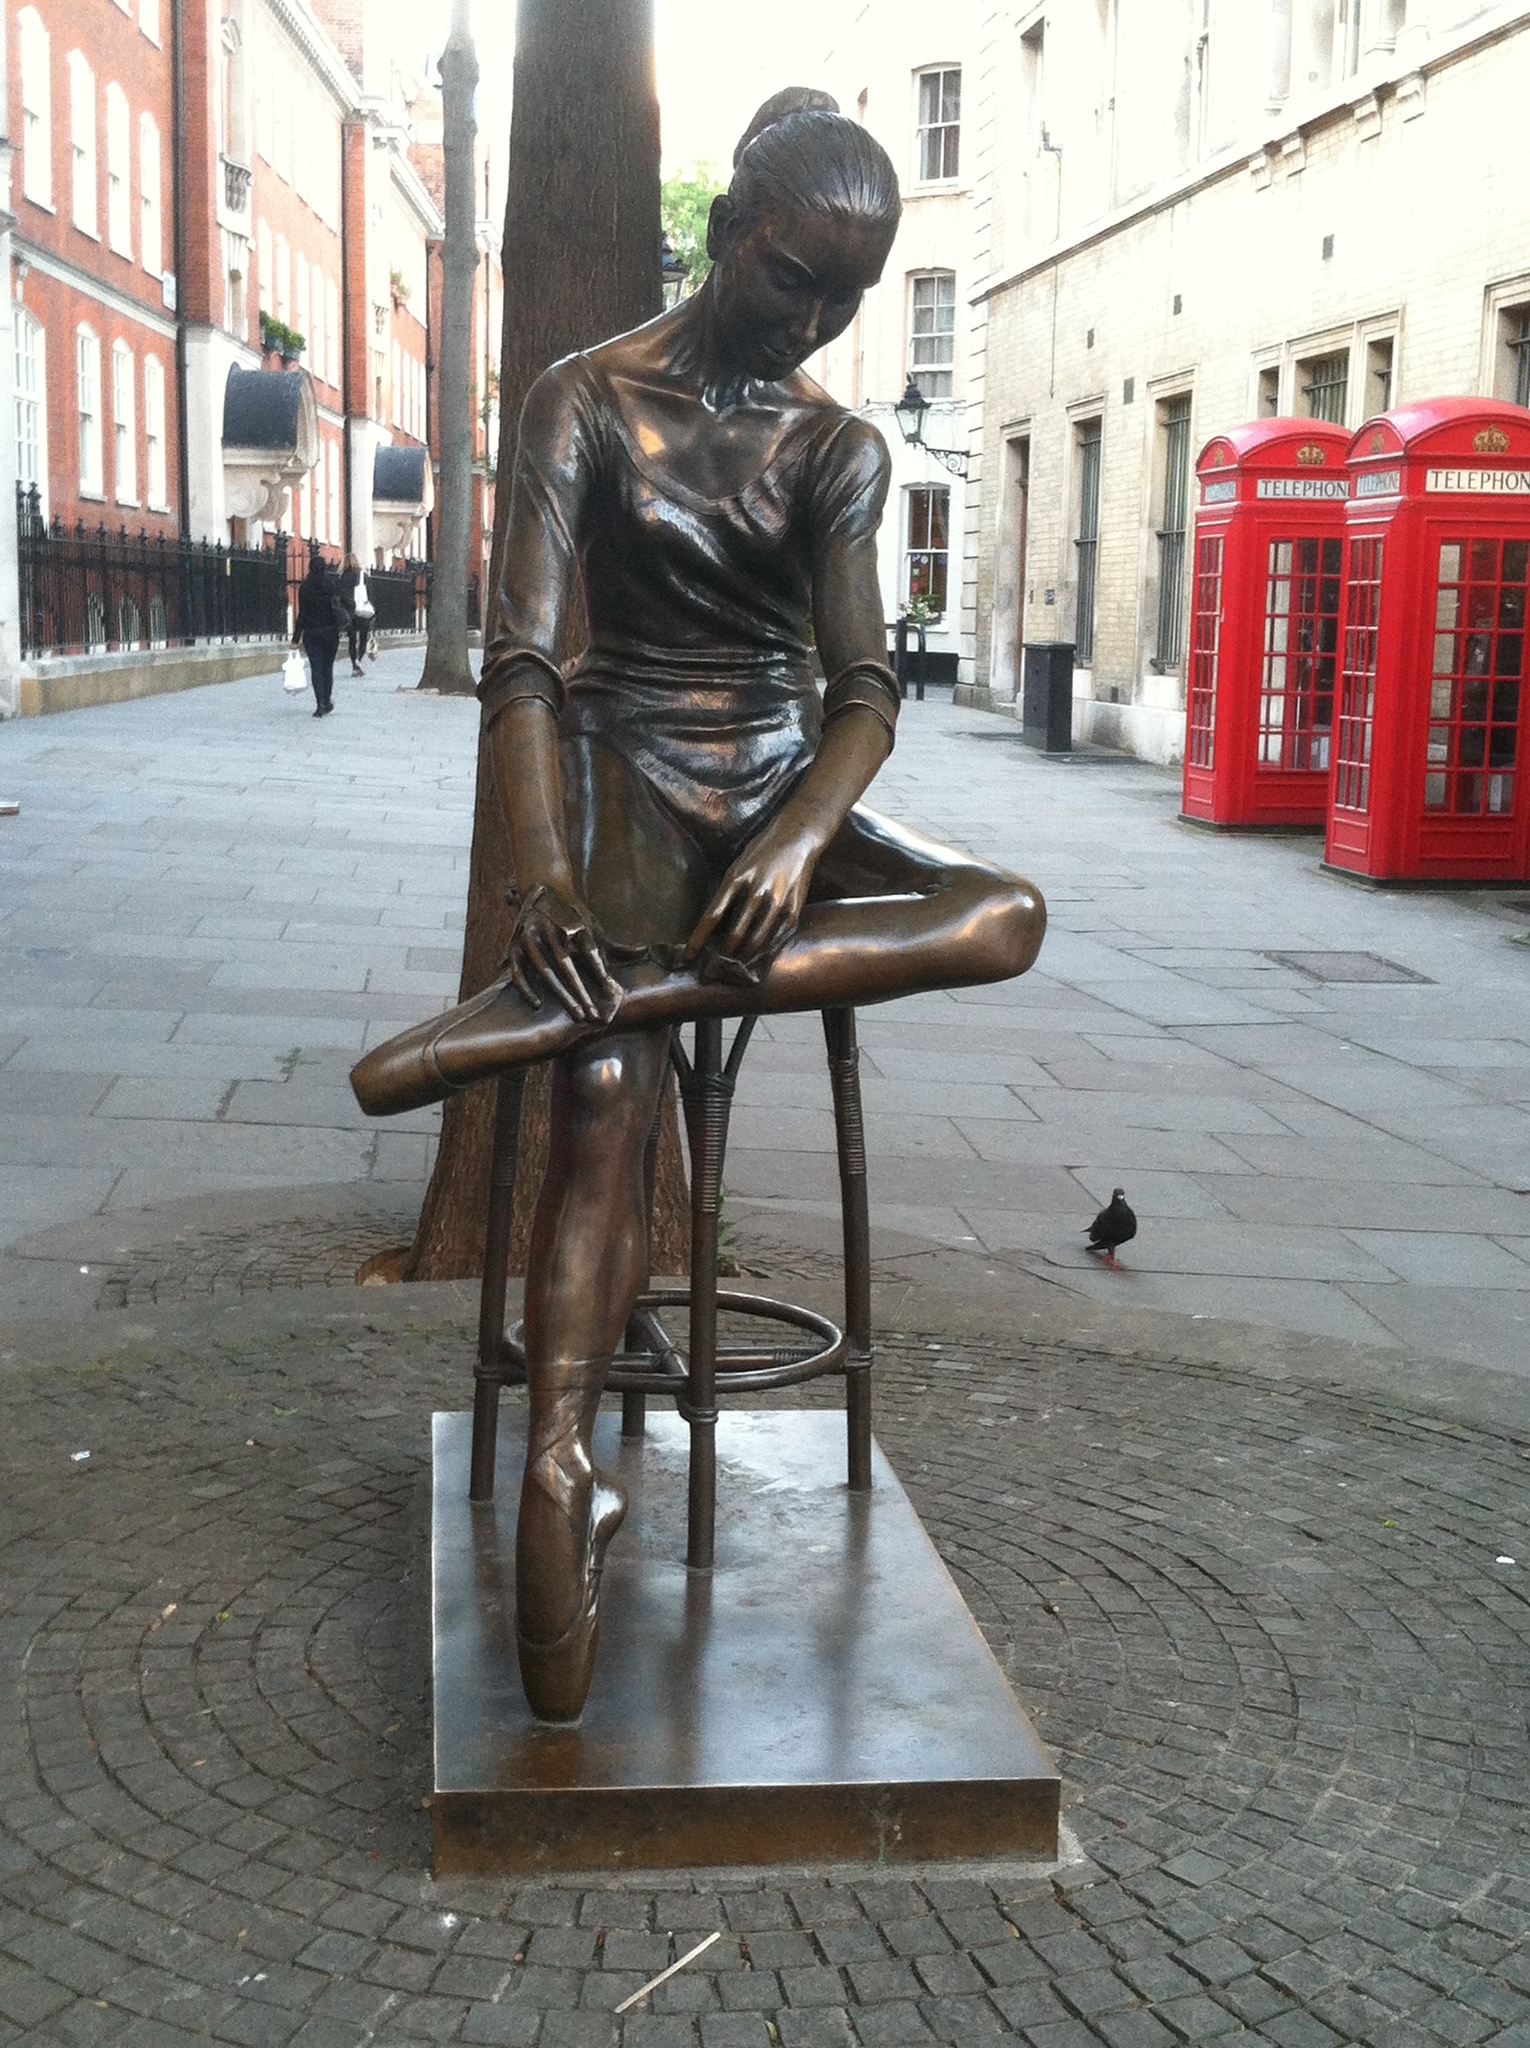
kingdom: Animalia
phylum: Chordata
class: Aves
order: Columbiformes
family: Columbidae
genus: Columba
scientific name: Columba livia
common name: Rock pigeon
